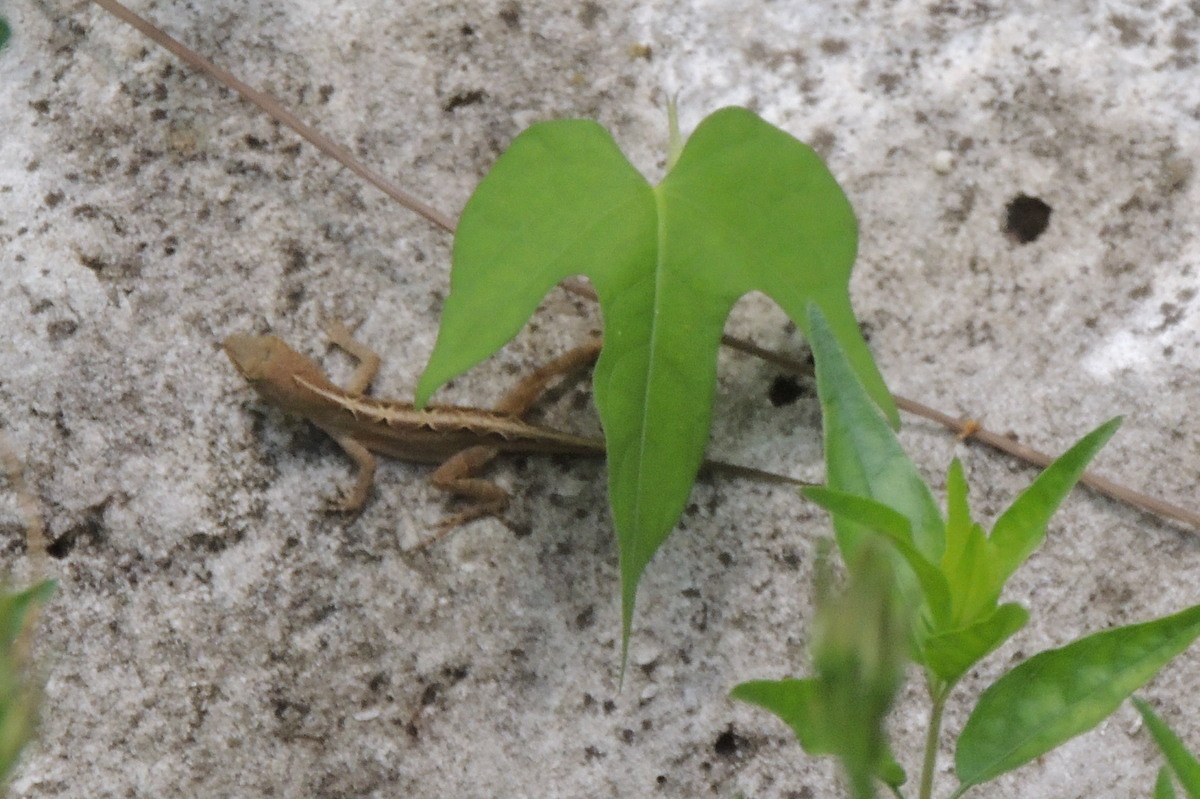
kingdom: Animalia
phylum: Chordata
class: Squamata
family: Dactyloidae
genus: Anolis
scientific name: Anolis sagrei
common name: Brown anole
